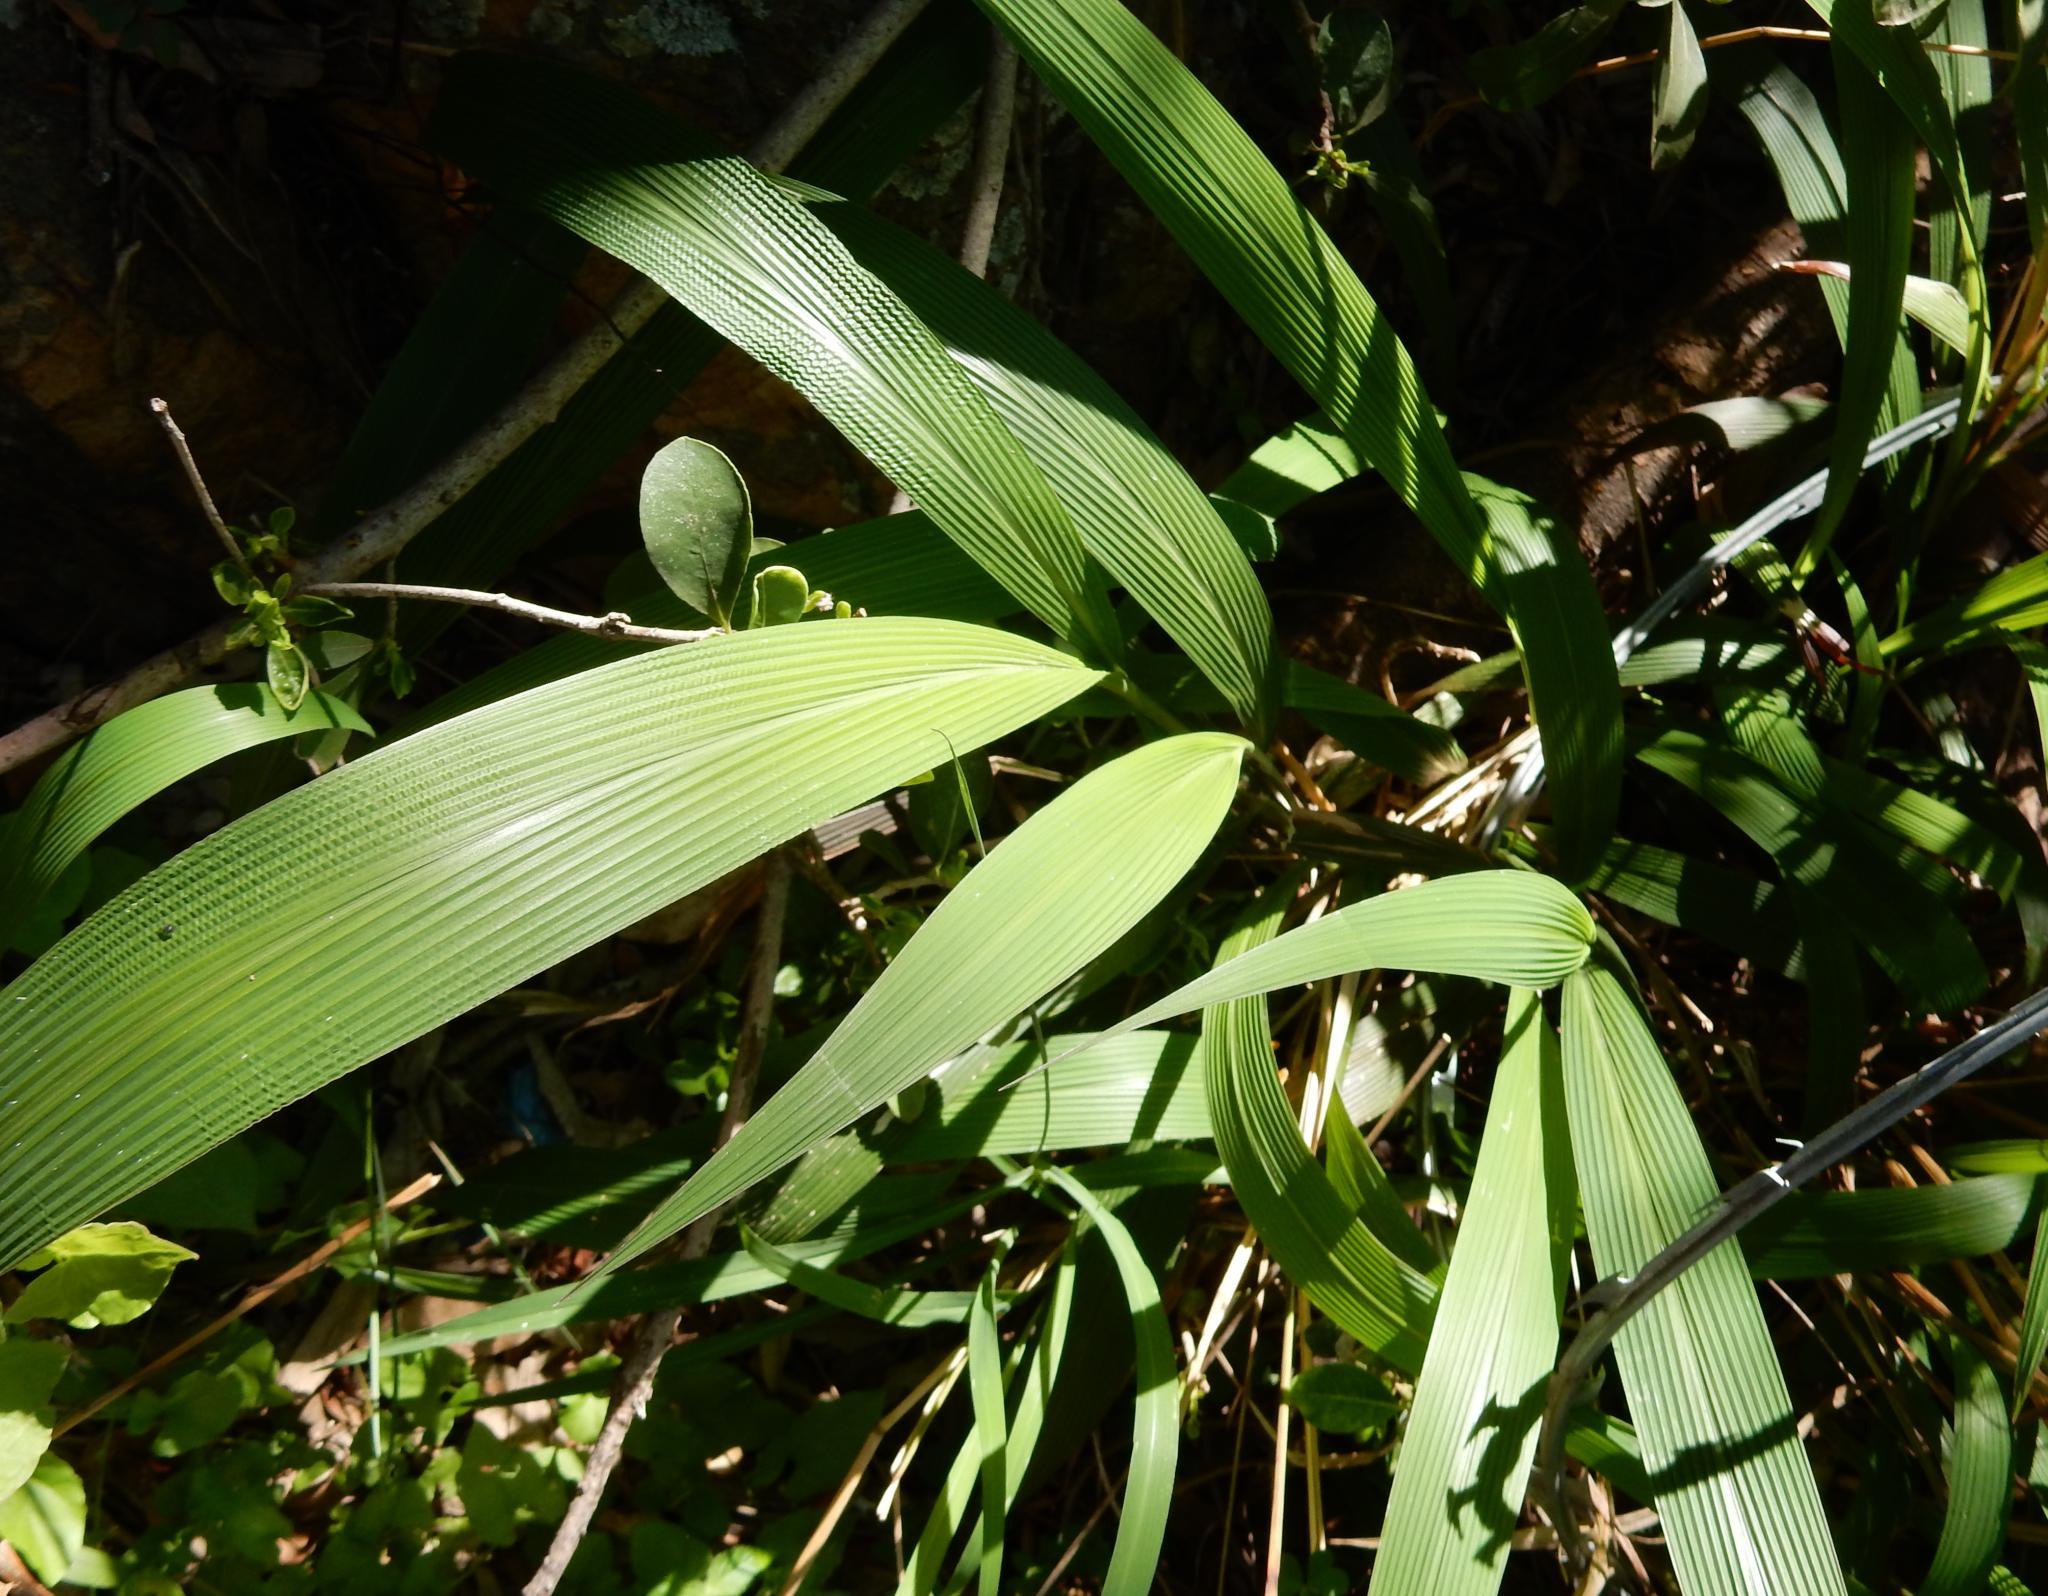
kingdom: Plantae
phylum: Tracheophyta
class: Liliopsida
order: Poales
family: Poaceae
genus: Setaria
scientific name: Setaria megaphylla
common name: Bigleaf bristlegrass
